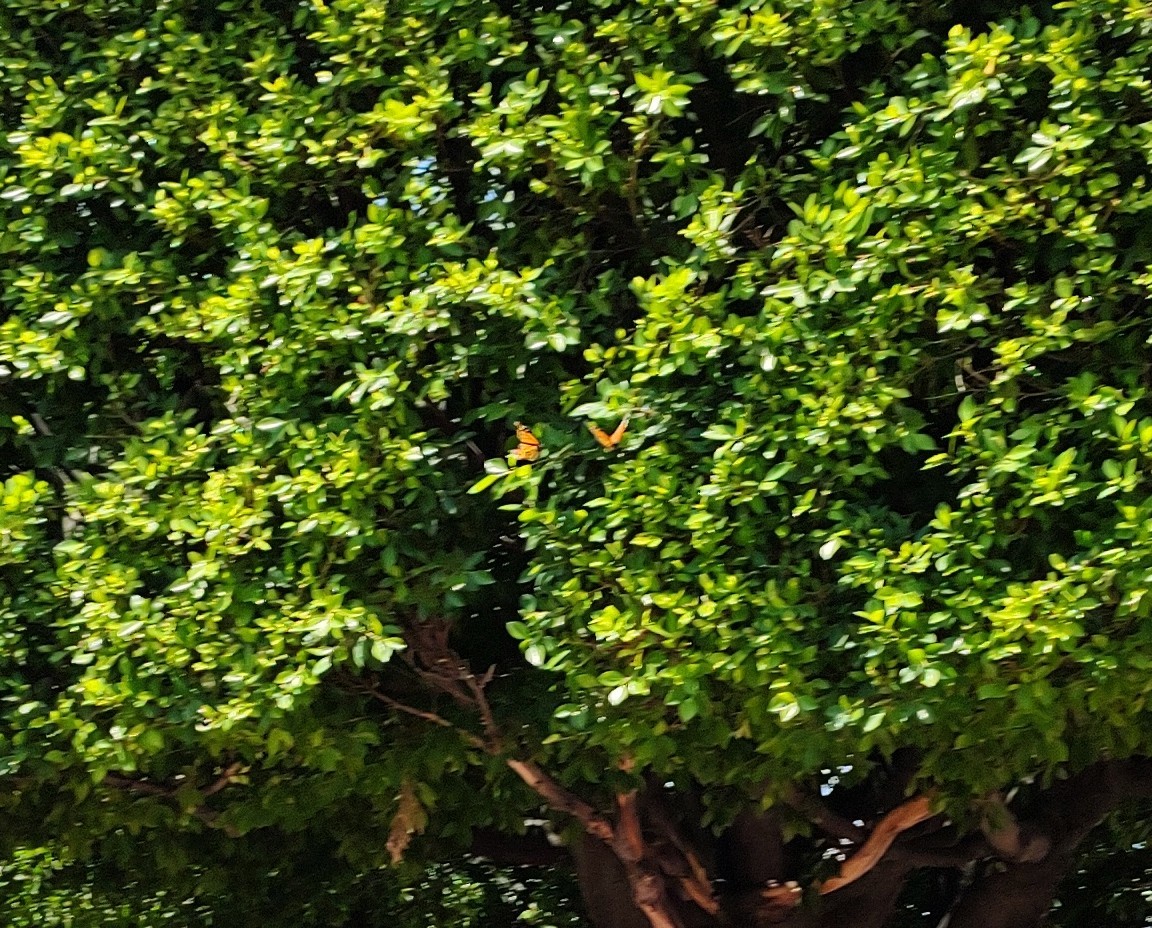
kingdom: Animalia
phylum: Arthropoda
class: Insecta
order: Lepidoptera
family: Nymphalidae
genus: Danaus
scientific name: Danaus plexippus
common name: Monarch
